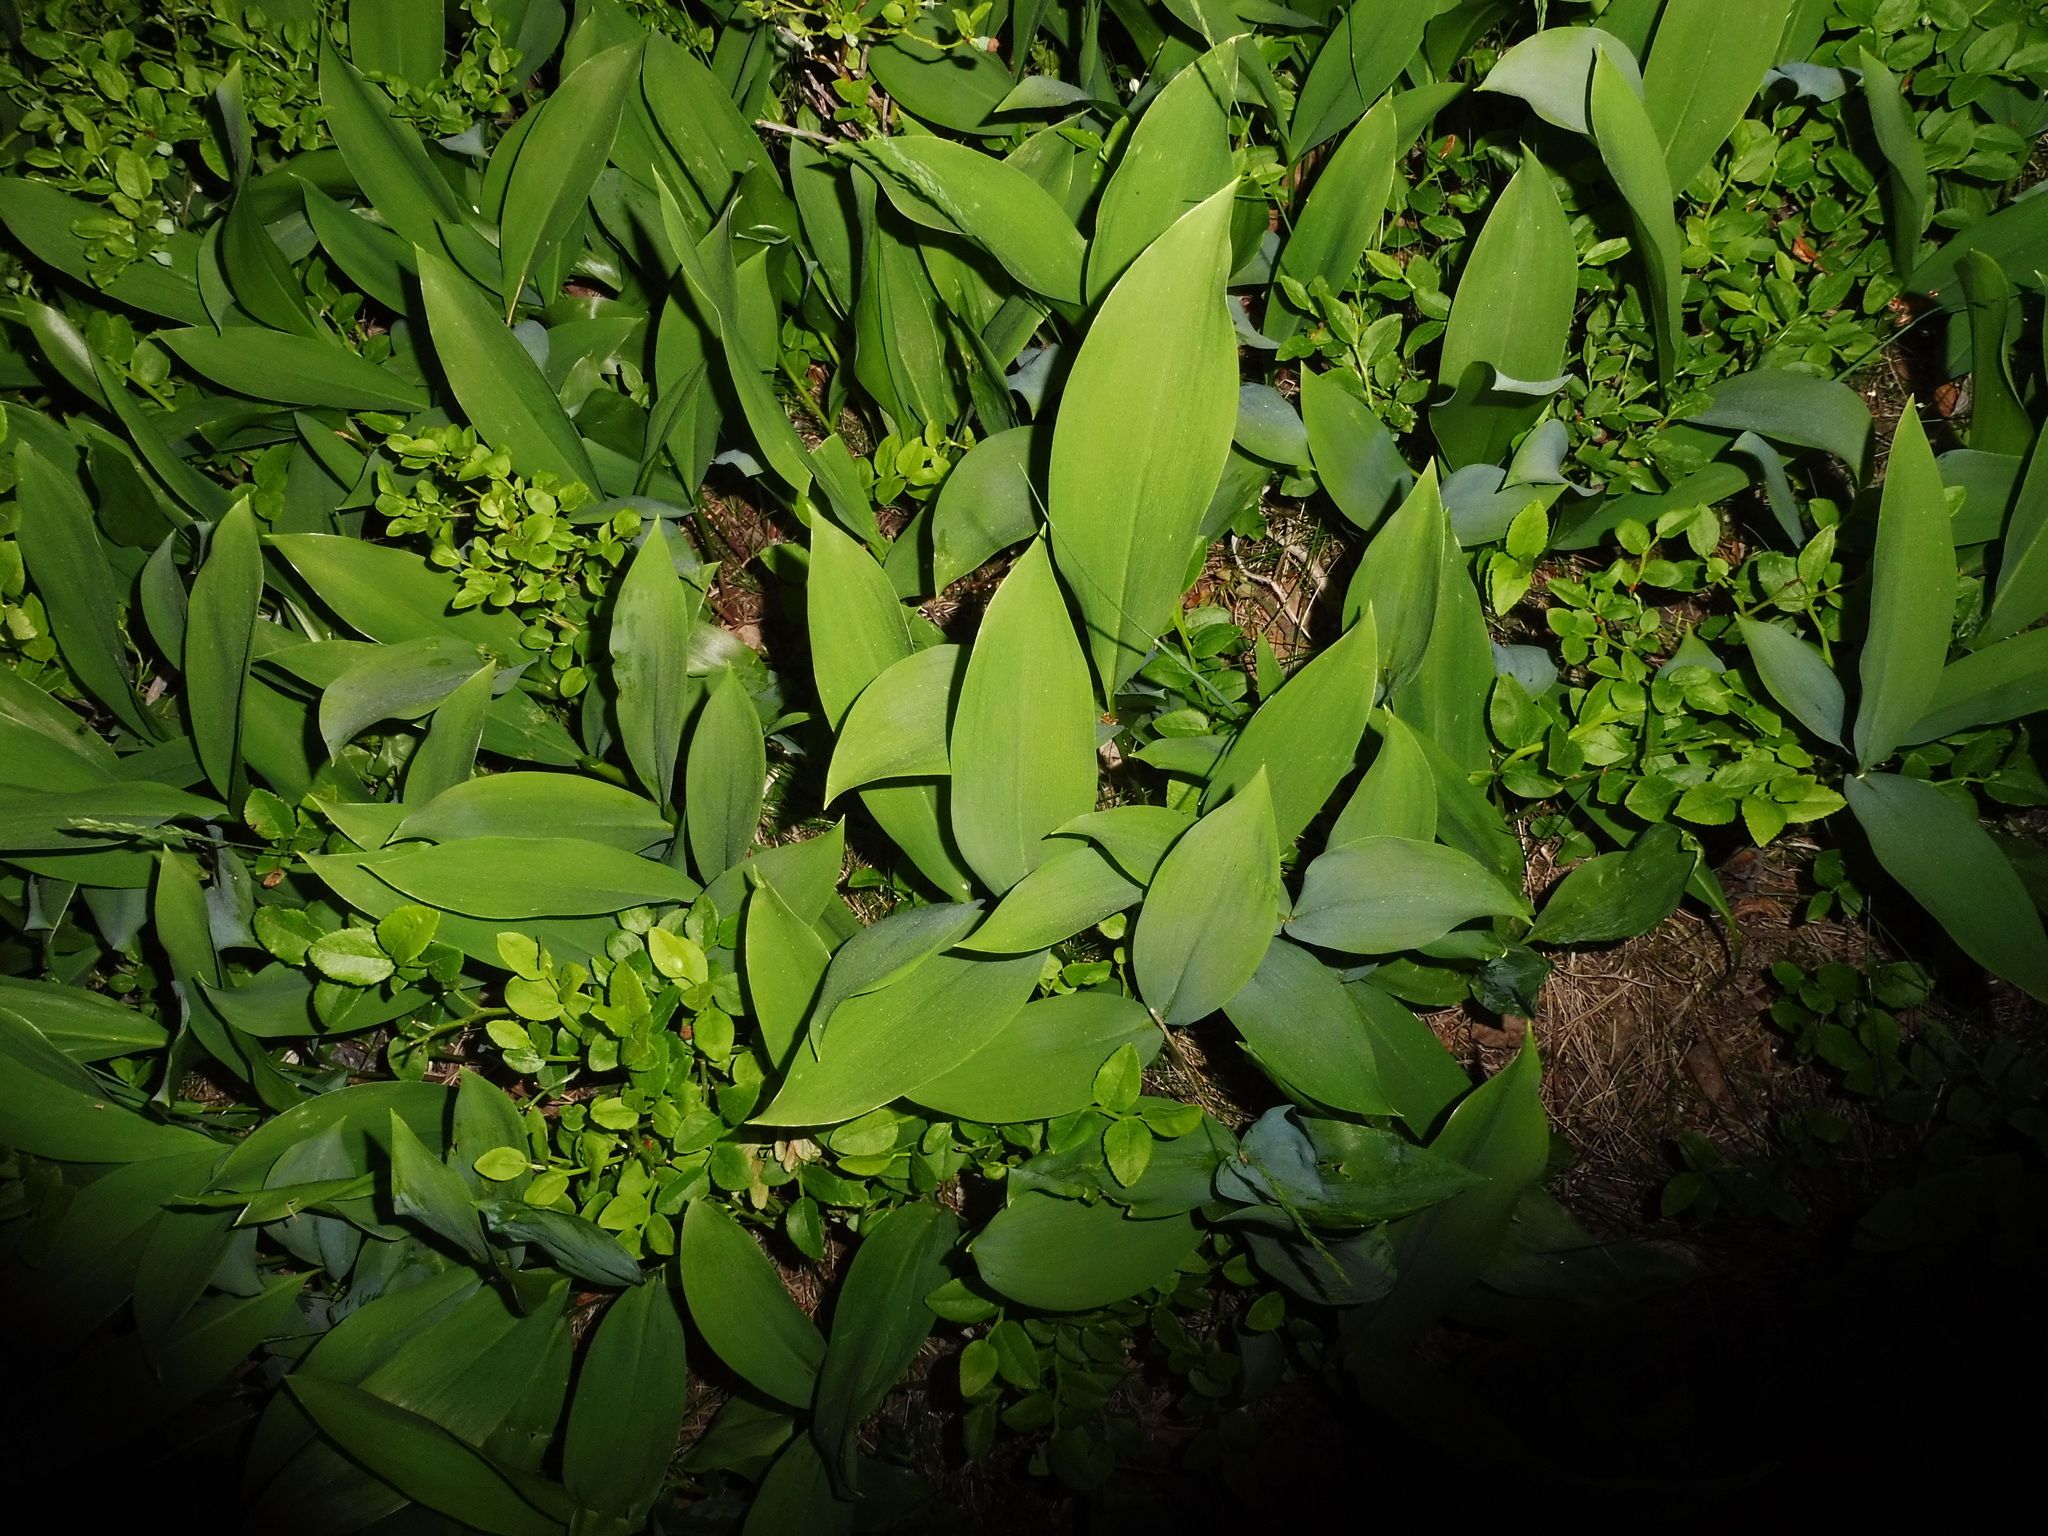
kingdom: Plantae
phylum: Tracheophyta
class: Liliopsida
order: Asparagales
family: Asparagaceae
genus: Convallaria
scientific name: Convallaria majalis
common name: Lily-of-the-valley
